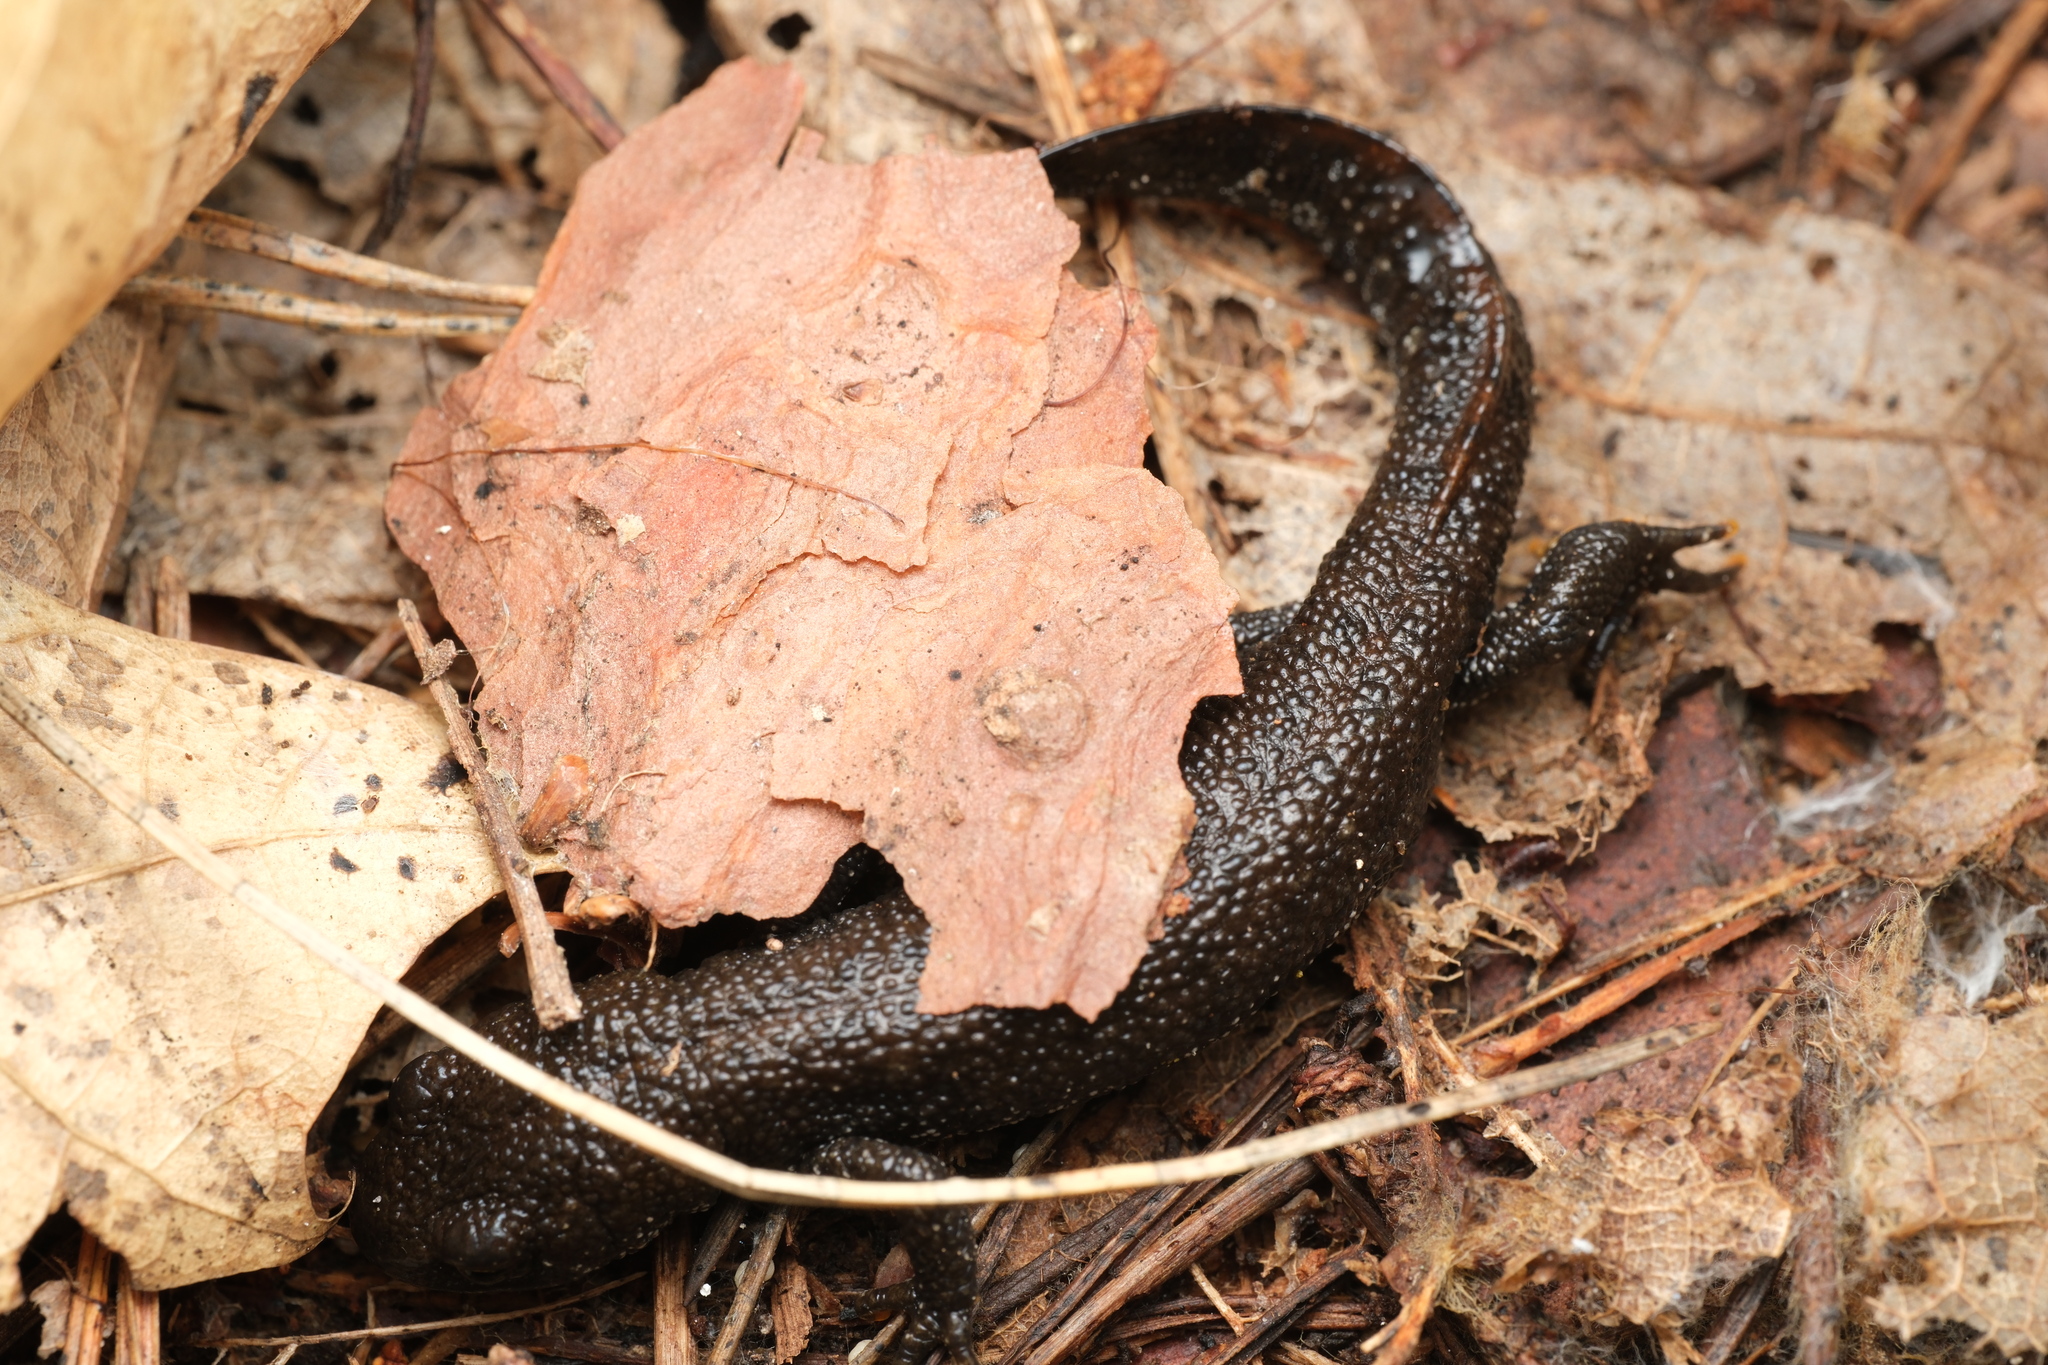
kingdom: Animalia
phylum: Chordata
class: Amphibia
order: Caudata
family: Salamandridae
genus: Triturus
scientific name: Triturus cristatus
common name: Crested newt
